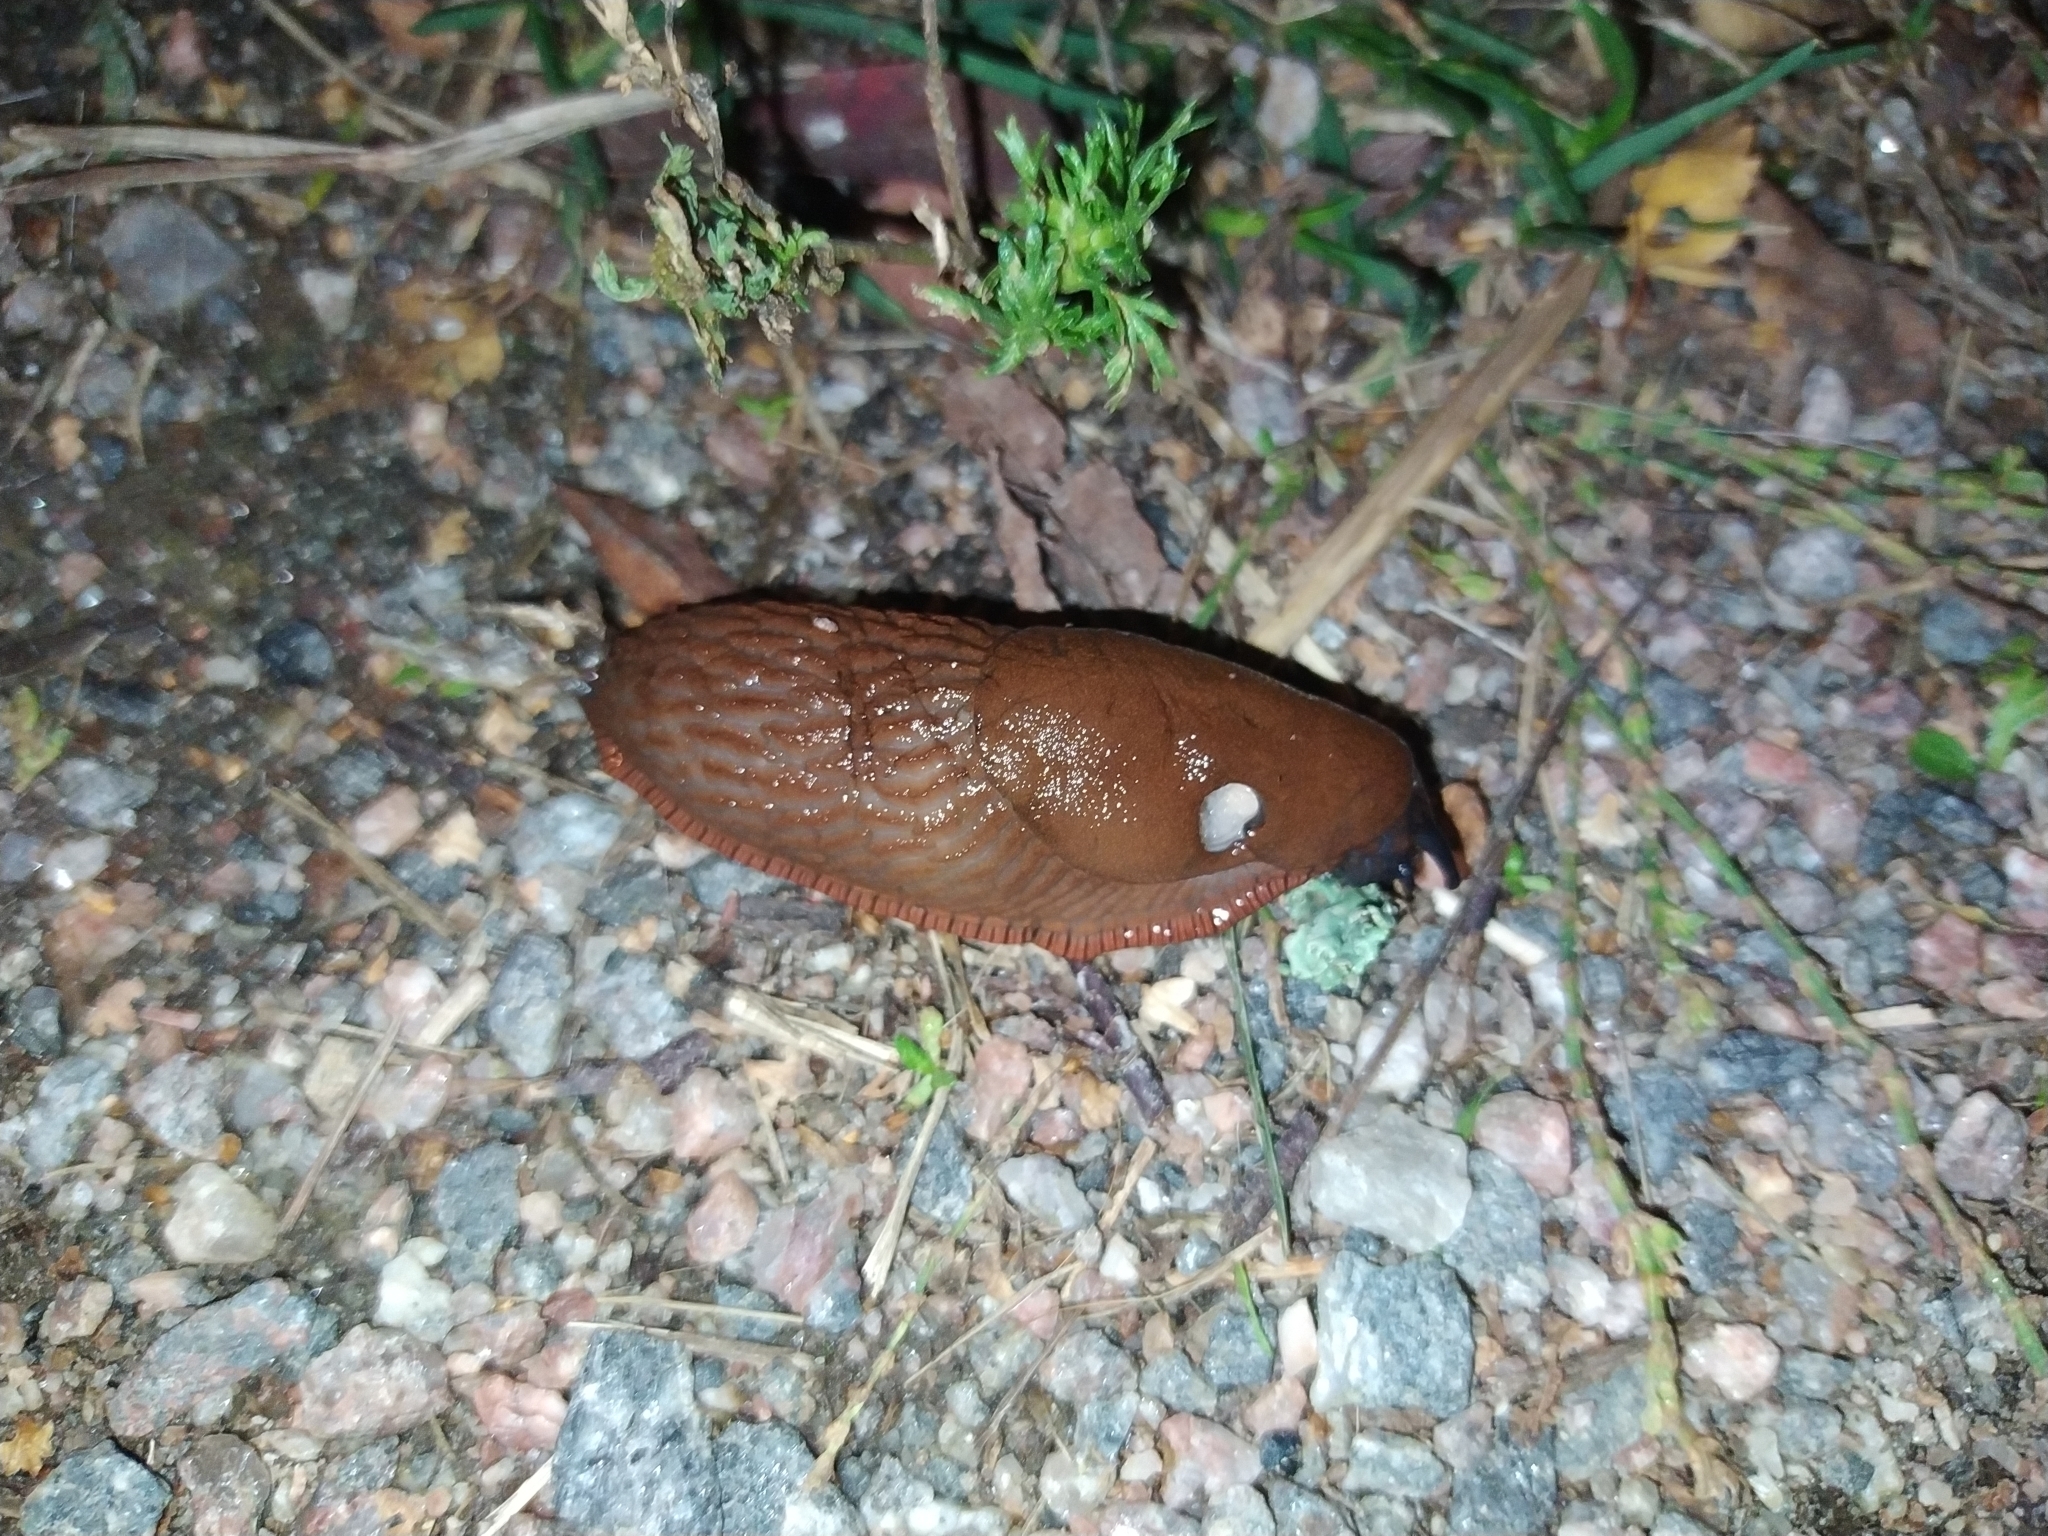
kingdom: Animalia
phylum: Mollusca
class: Gastropoda
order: Stylommatophora
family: Arionidae
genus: Arion
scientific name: Arion vulgaris
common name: Lusitanian slug
